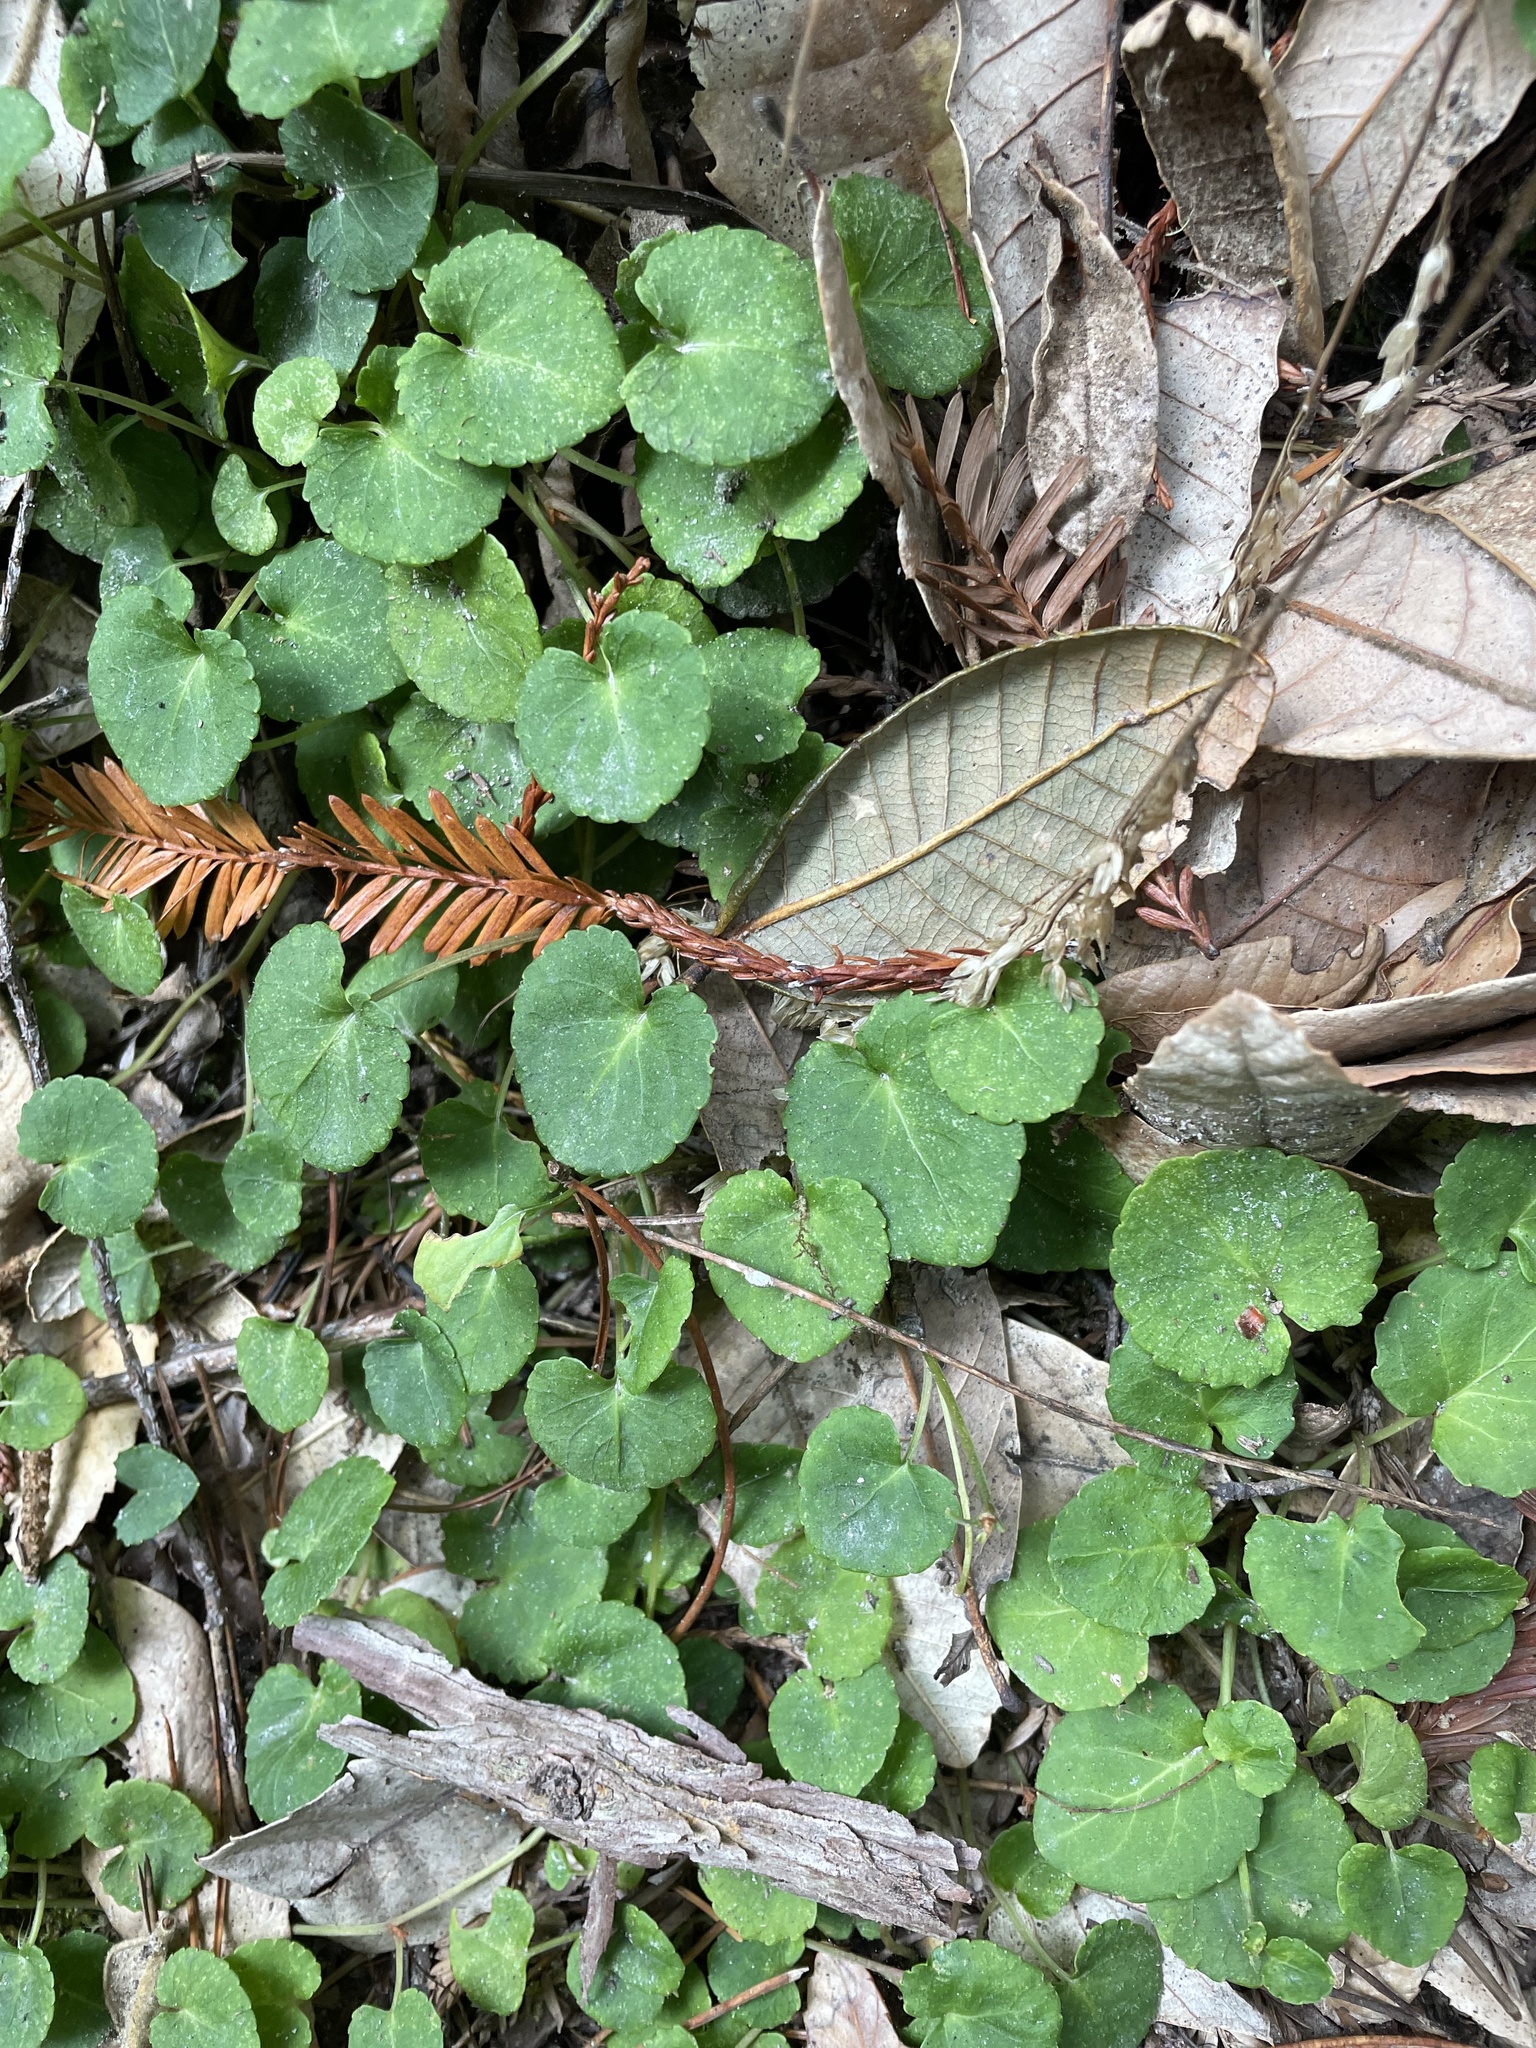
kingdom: Plantae
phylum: Tracheophyta
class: Magnoliopsida
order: Malpighiales
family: Violaceae
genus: Viola
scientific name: Viola sempervirens
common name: Evergreen violet
